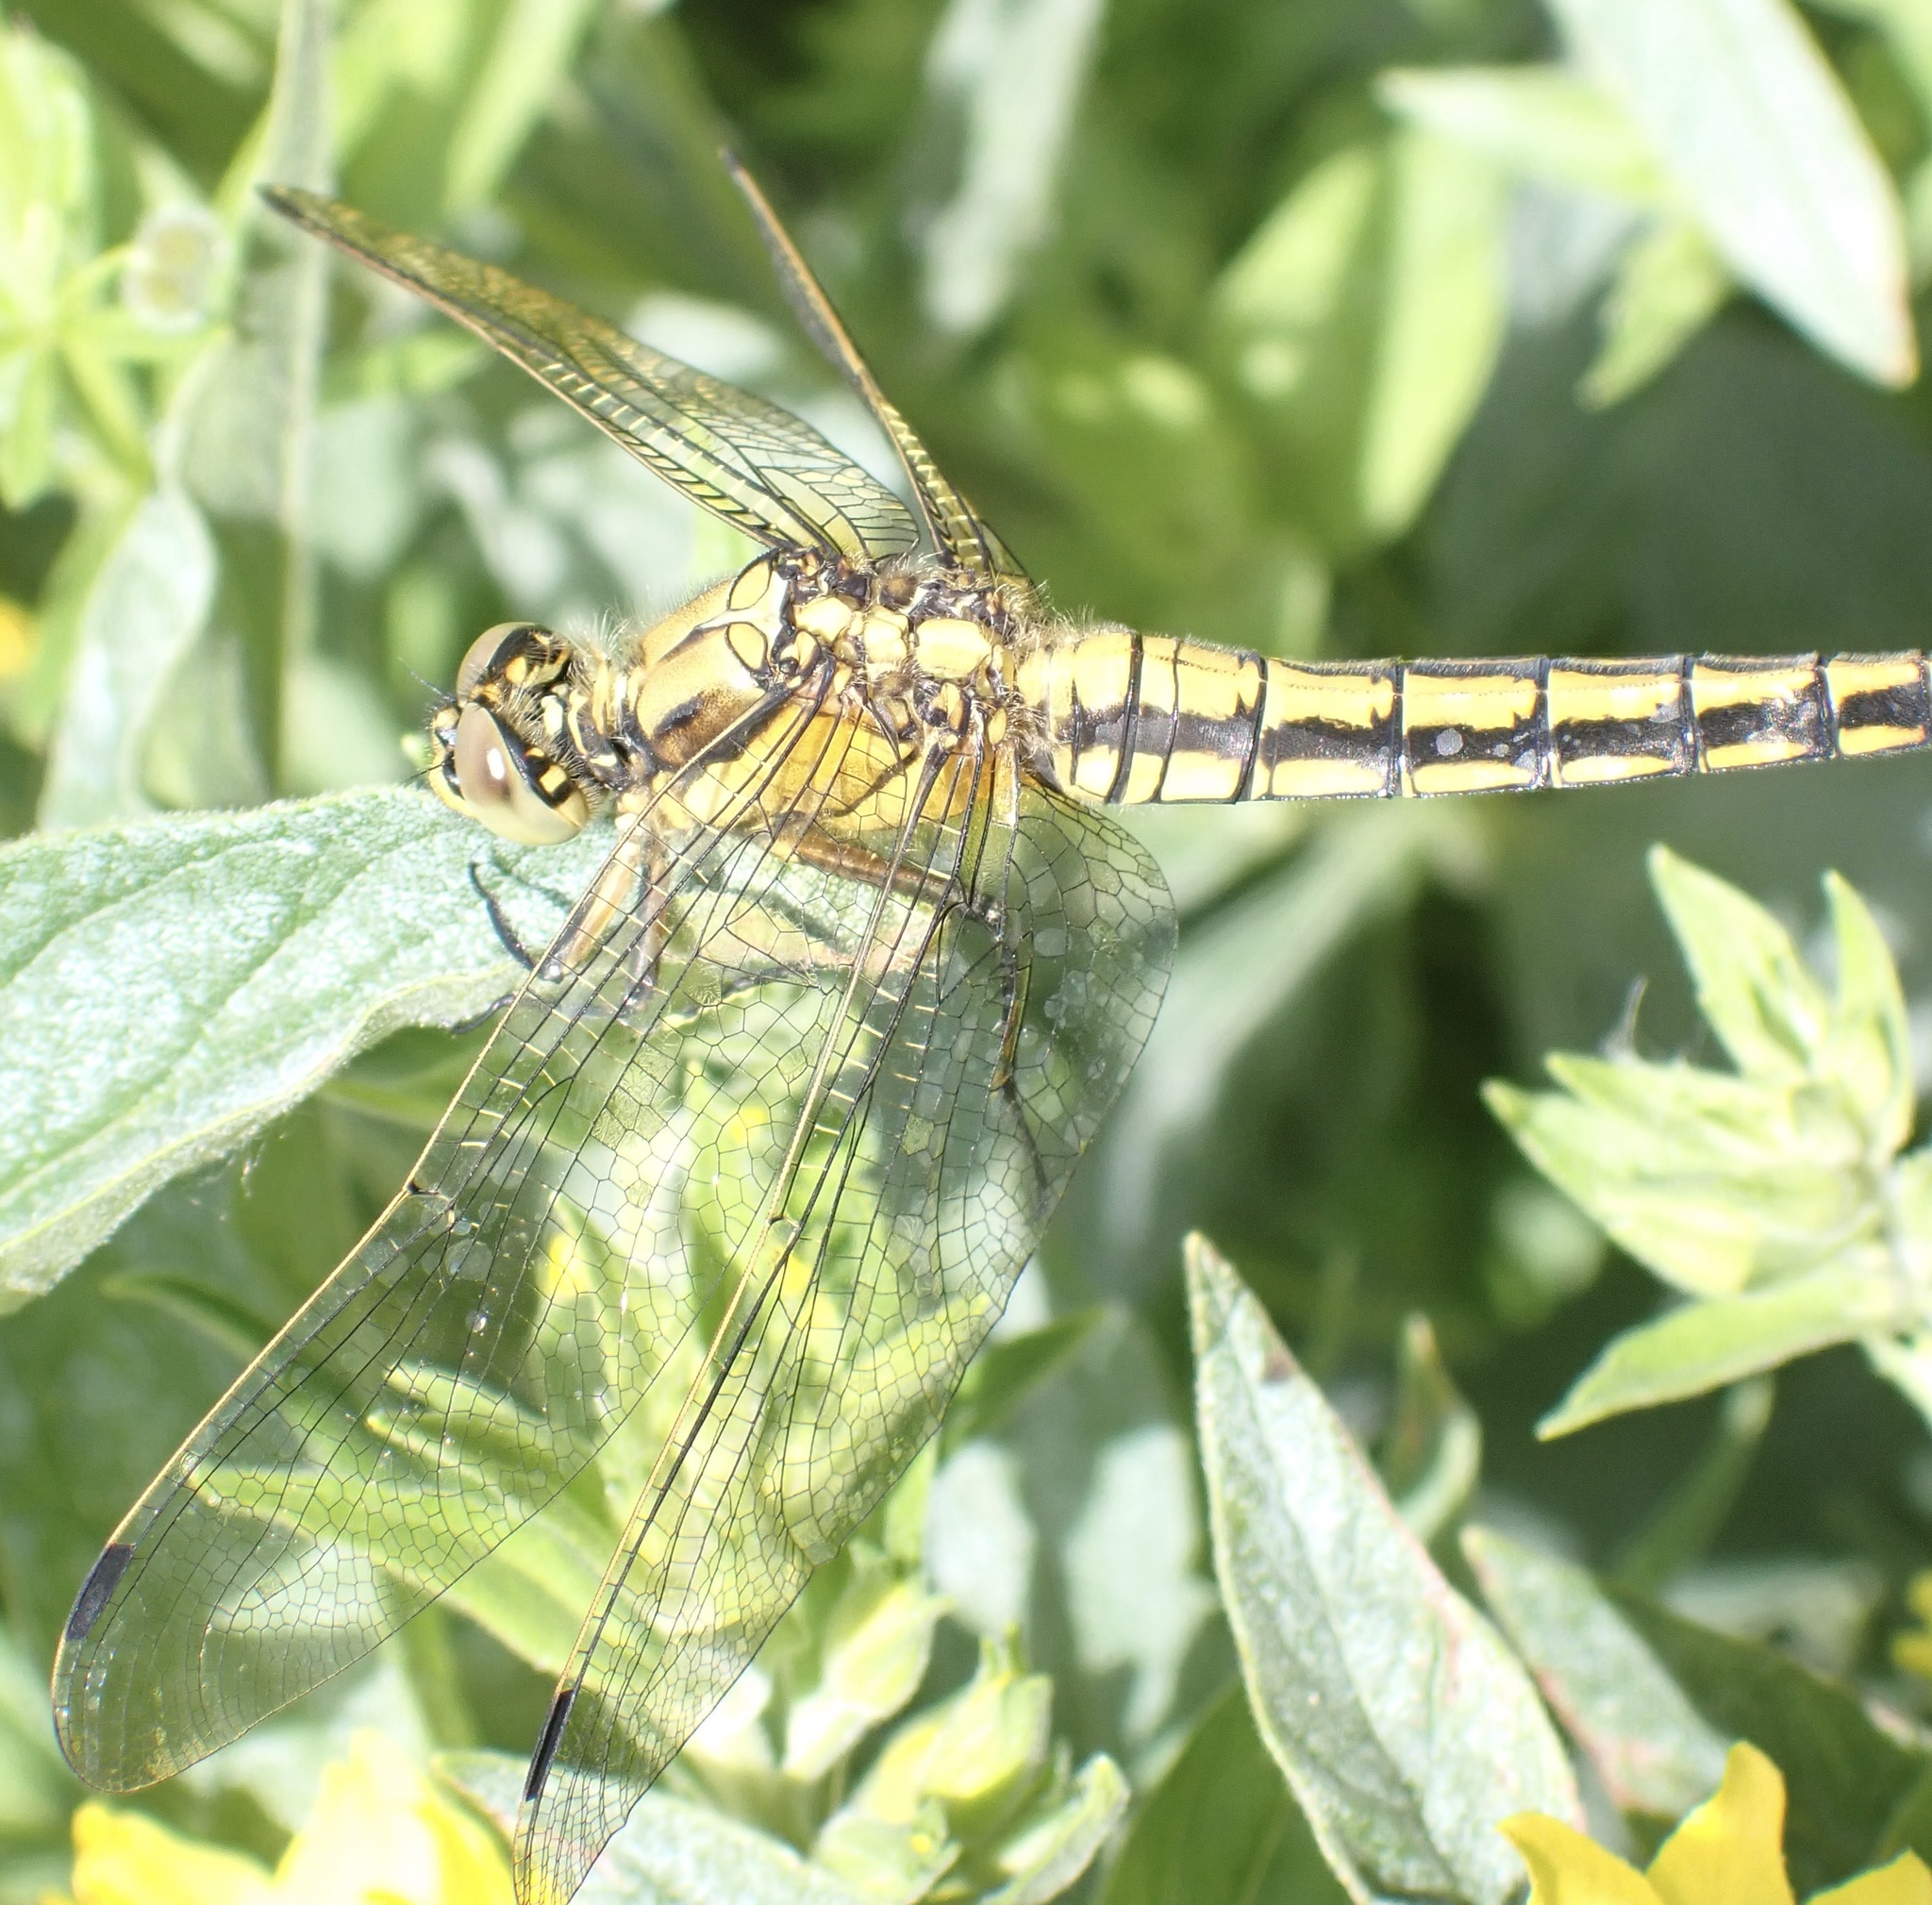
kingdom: Animalia
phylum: Arthropoda
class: Insecta
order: Odonata
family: Libellulidae
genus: Orthetrum
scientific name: Orthetrum cancellatum
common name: Black-tailed skimmer
